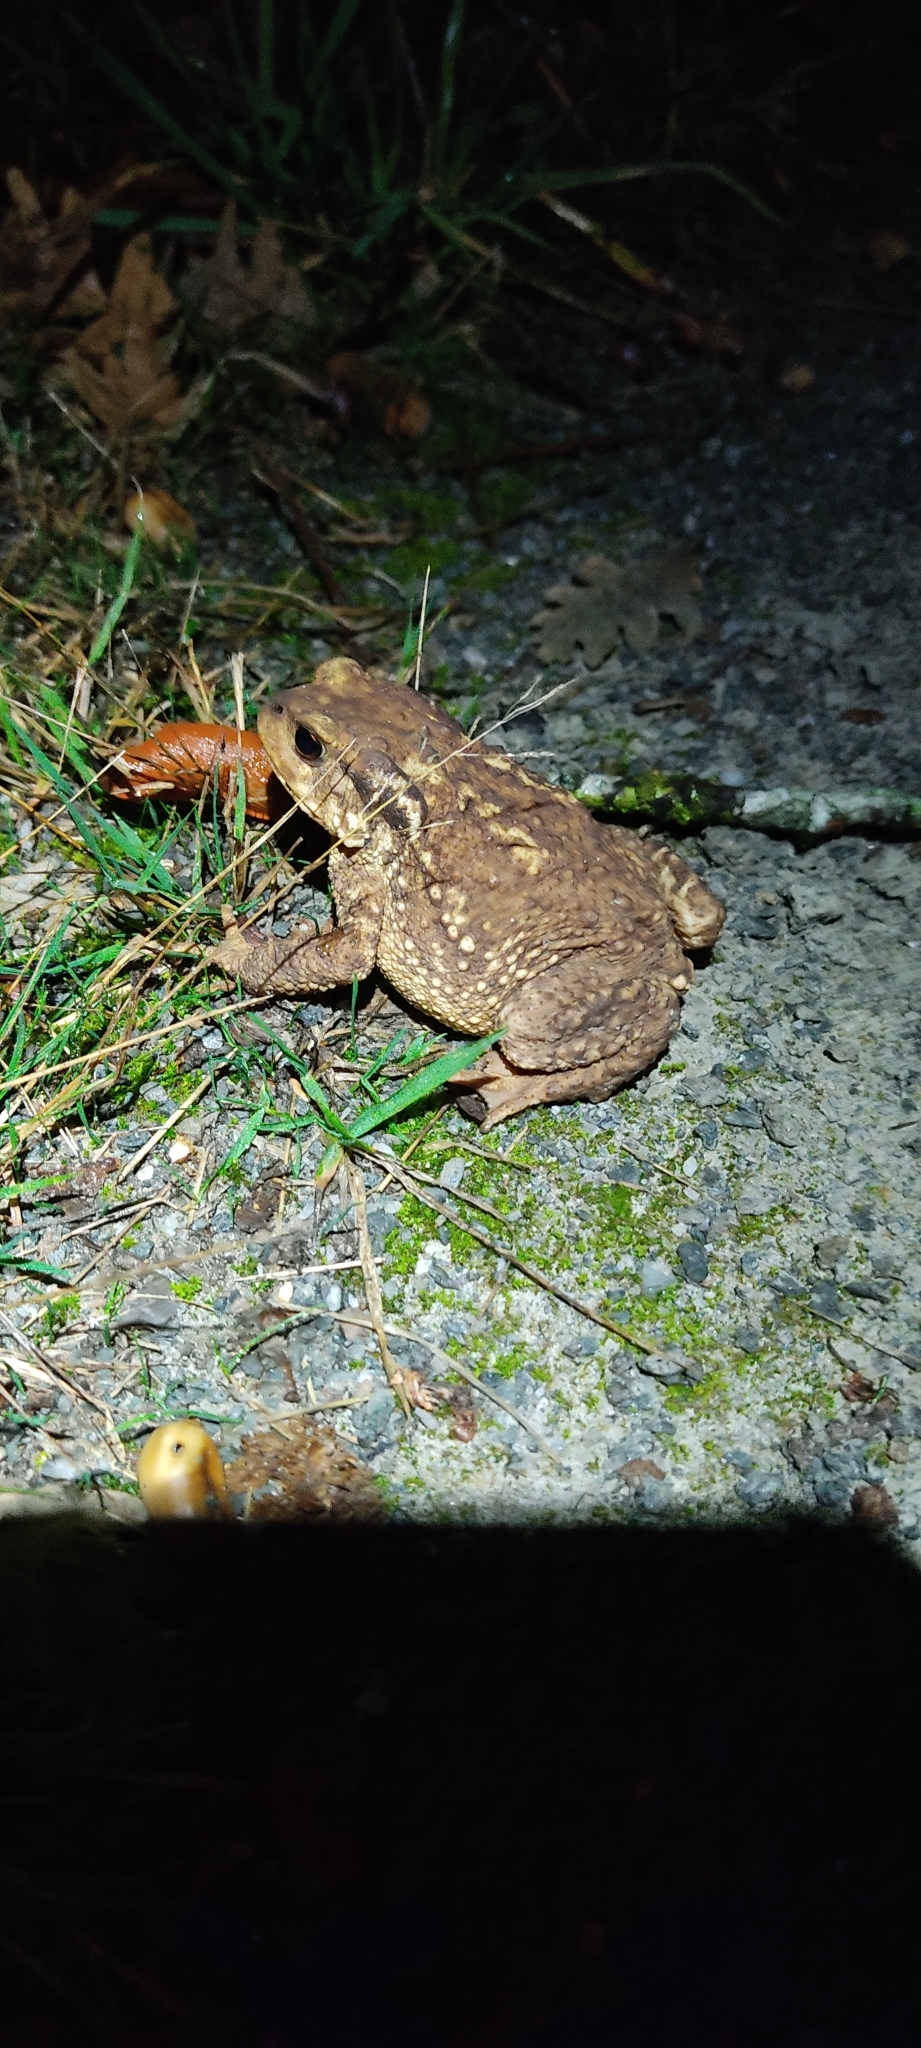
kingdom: Animalia
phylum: Chordata
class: Amphibia
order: Anura
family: Bufonidae
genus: Bufo
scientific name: Bufo spinosus
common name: Western common toad
